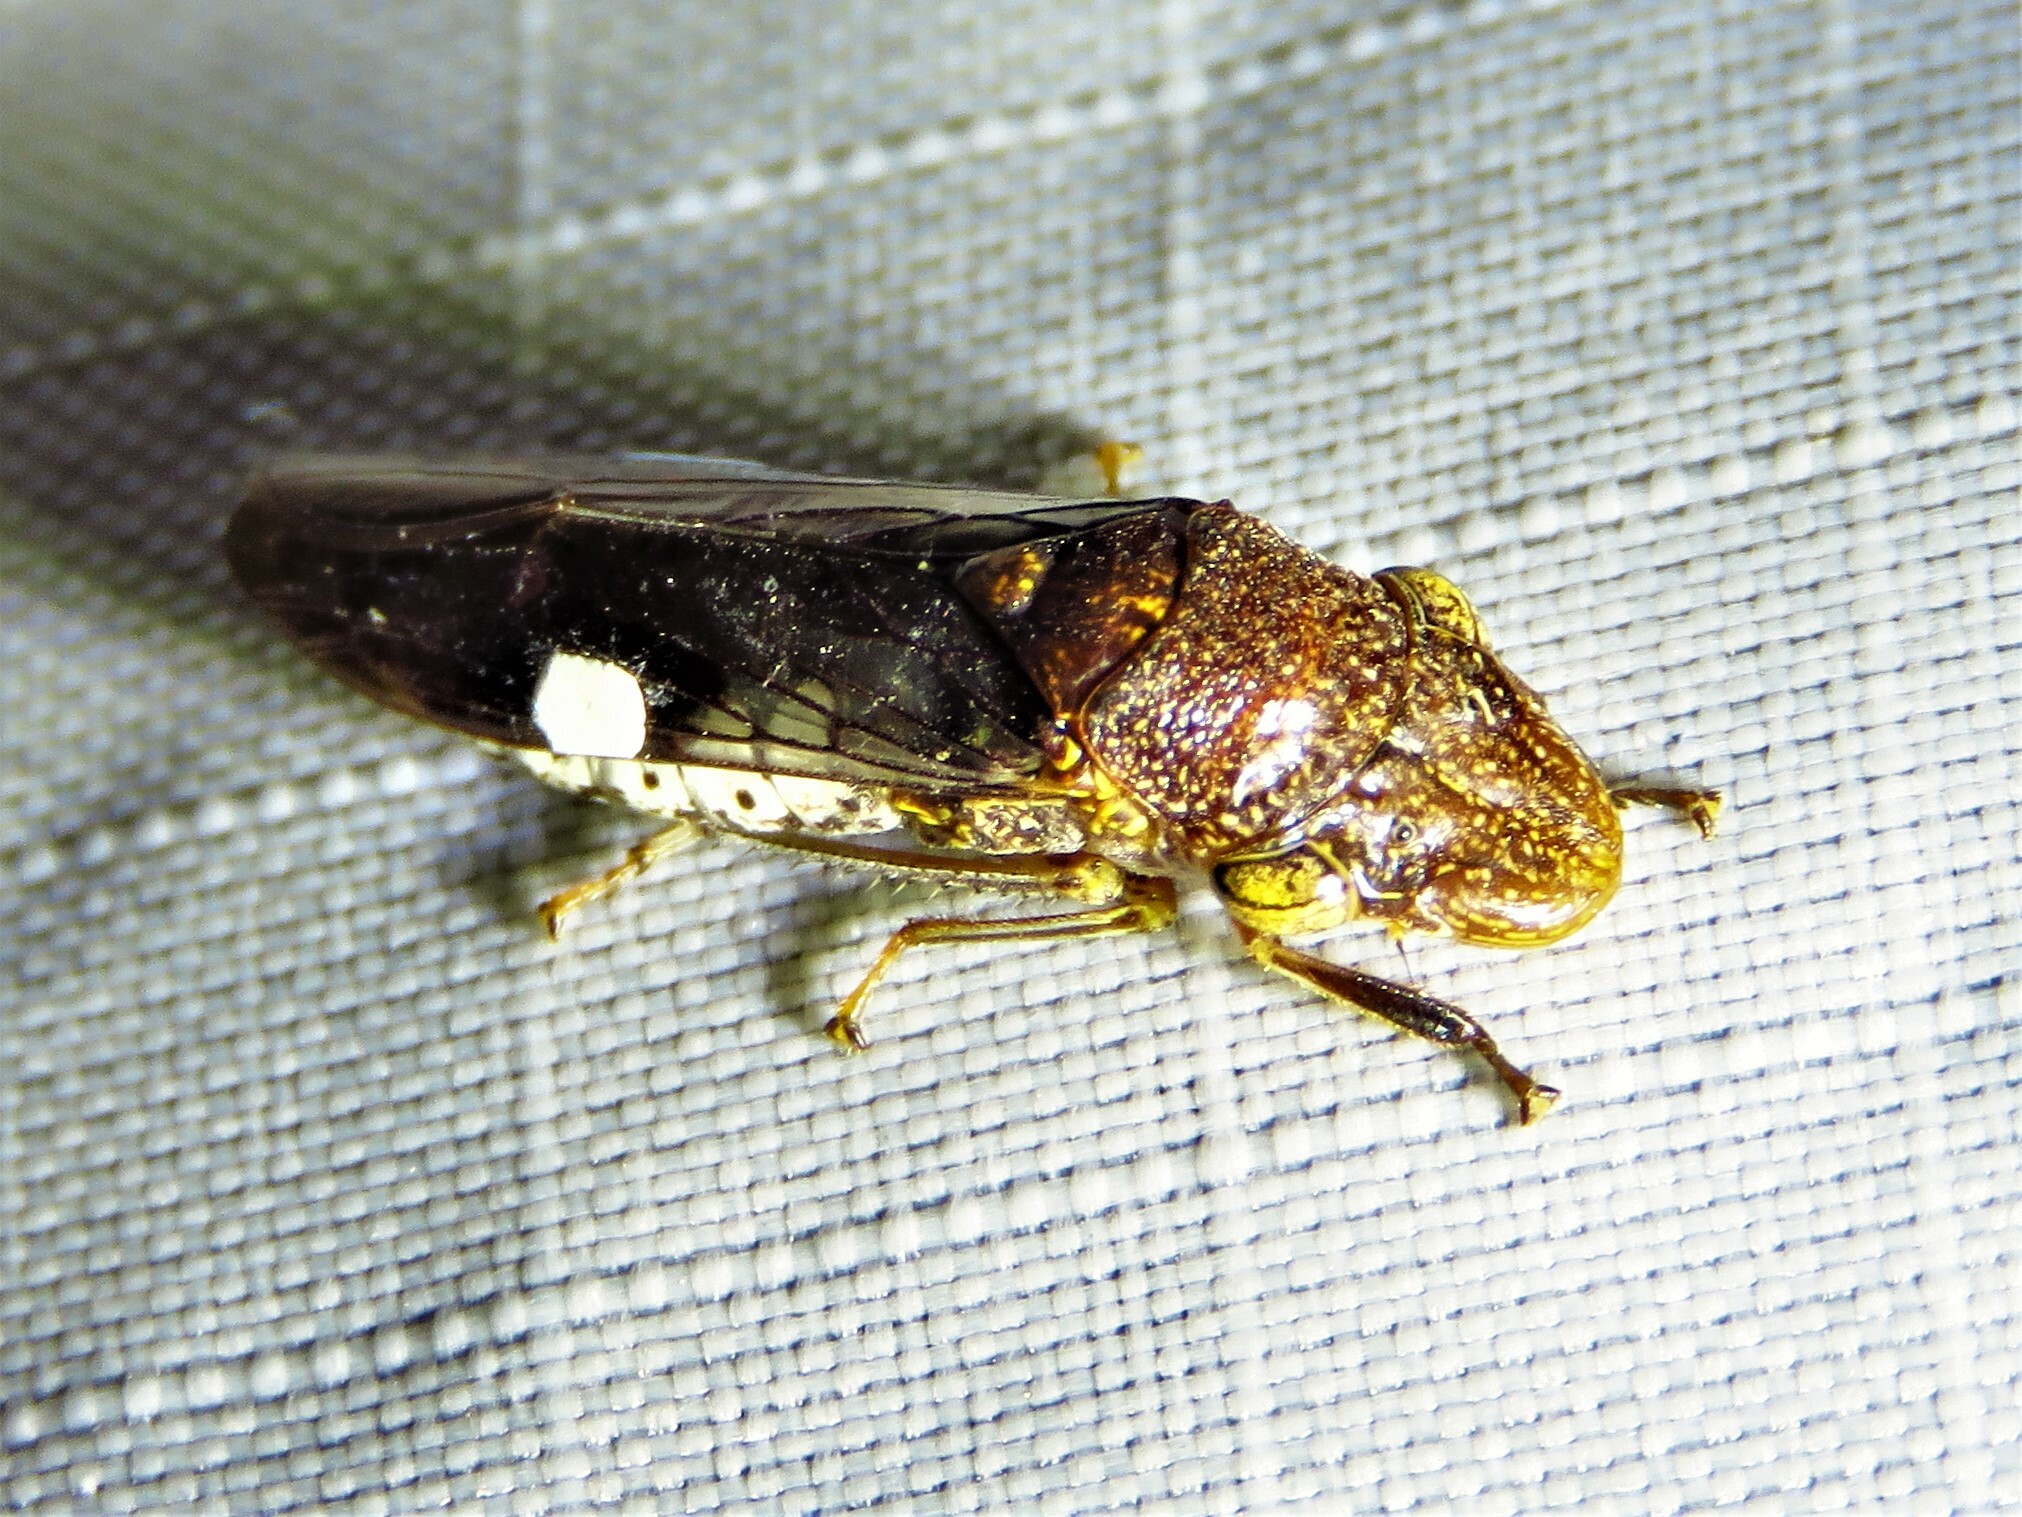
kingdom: Animalia
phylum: Arthropoda
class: Insecta
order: Hemiptera
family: Cicadellidae
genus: Homalodisca
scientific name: Homalodisca vitripennis
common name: Glassy-winged sharpshooter
